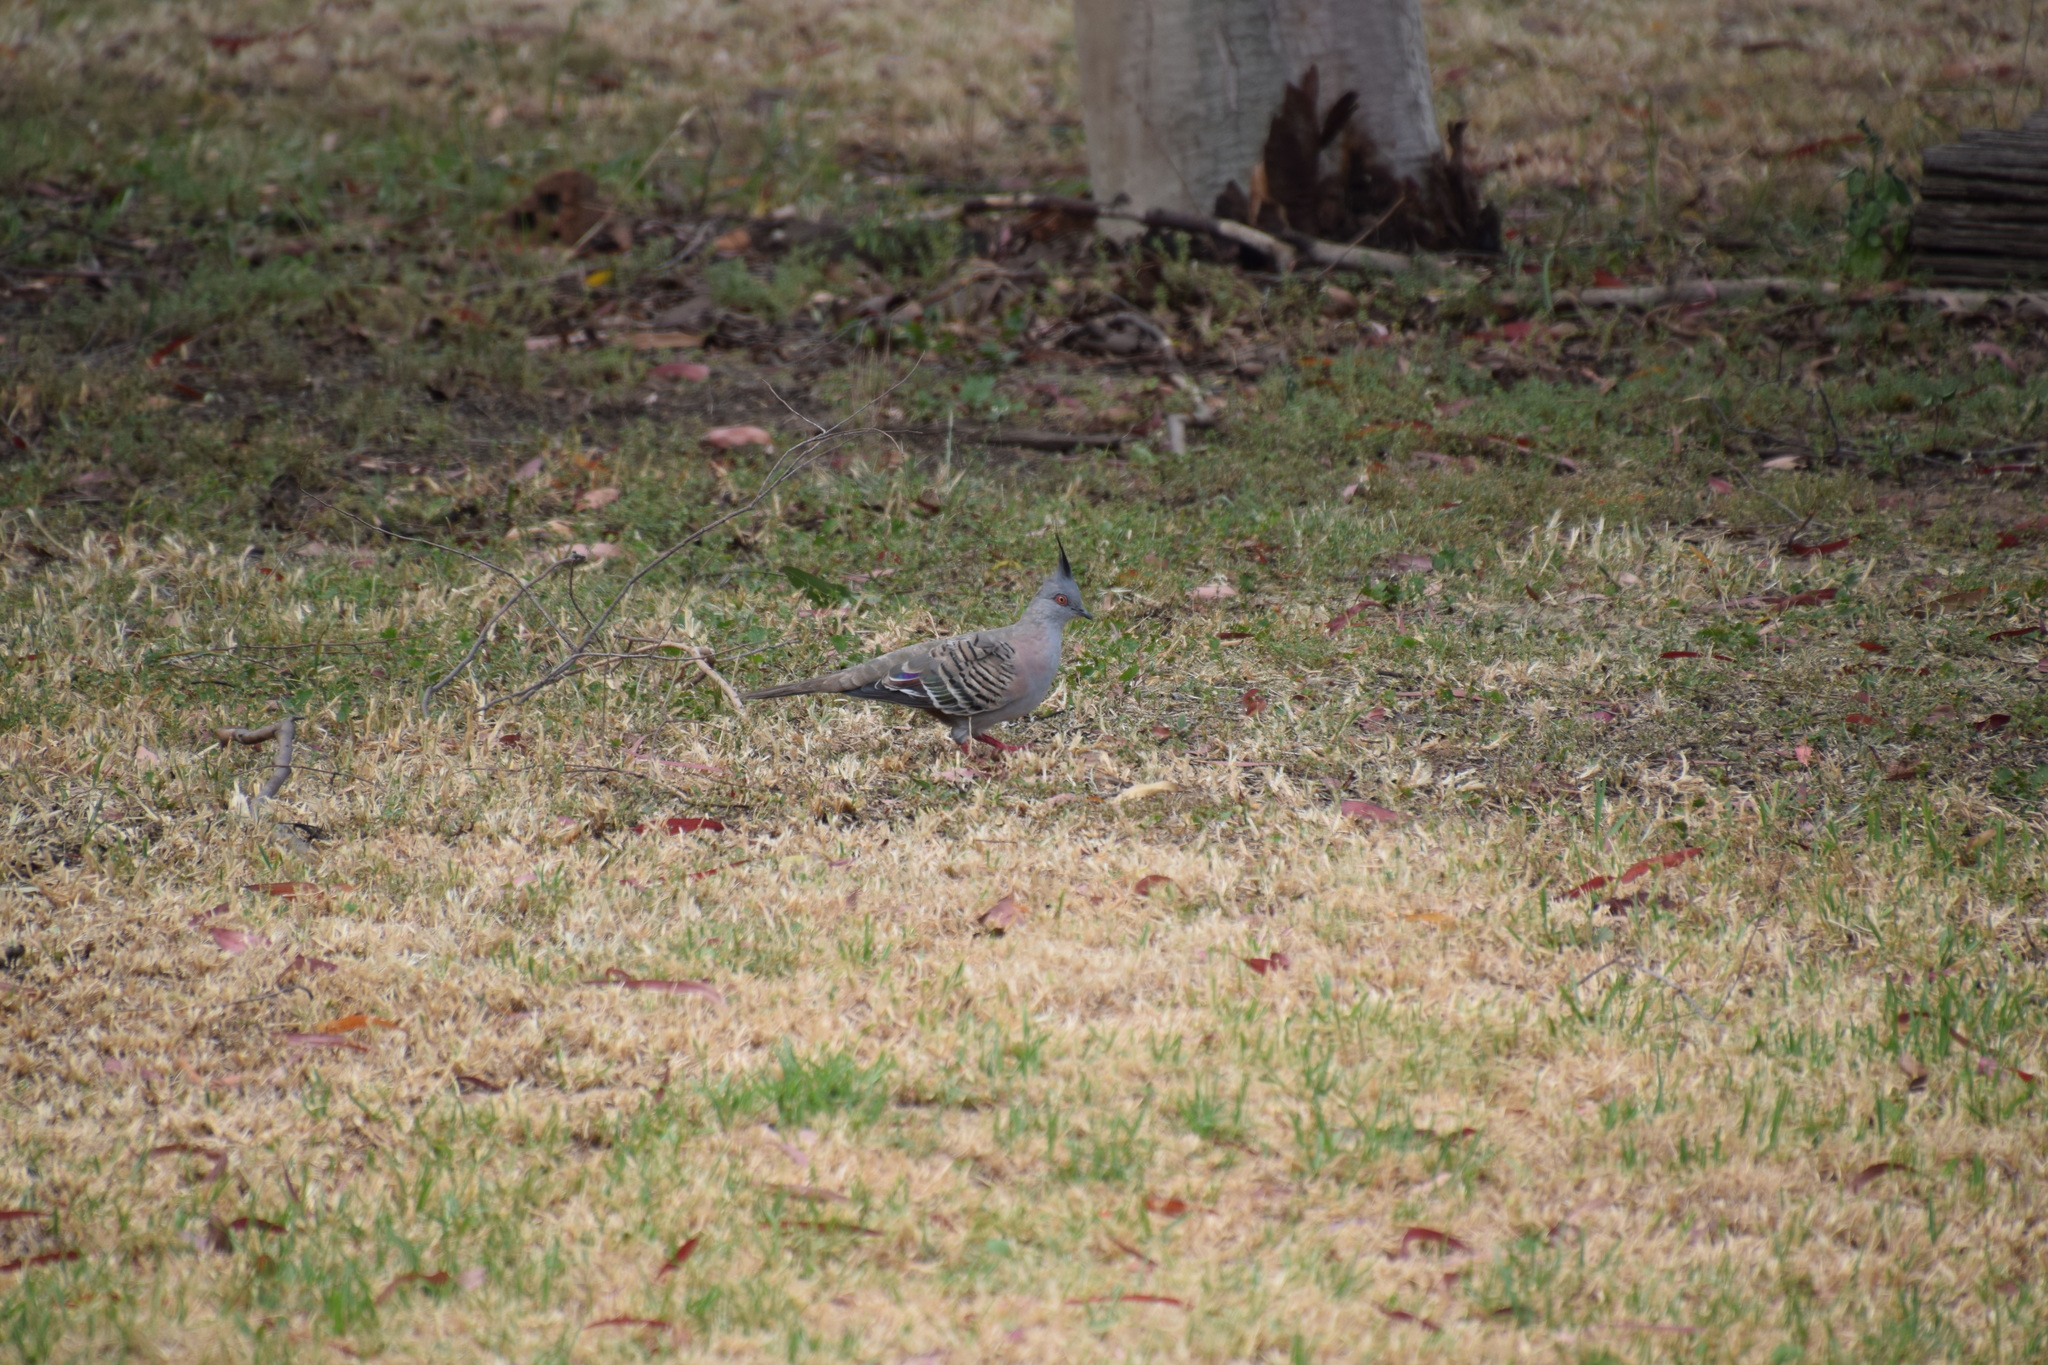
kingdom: Animalia
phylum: Chordata
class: Aves
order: Columbiformes
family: Columbidae
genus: Ocyphaps
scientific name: Ocyphaps lophotes
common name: Crested pigeon
